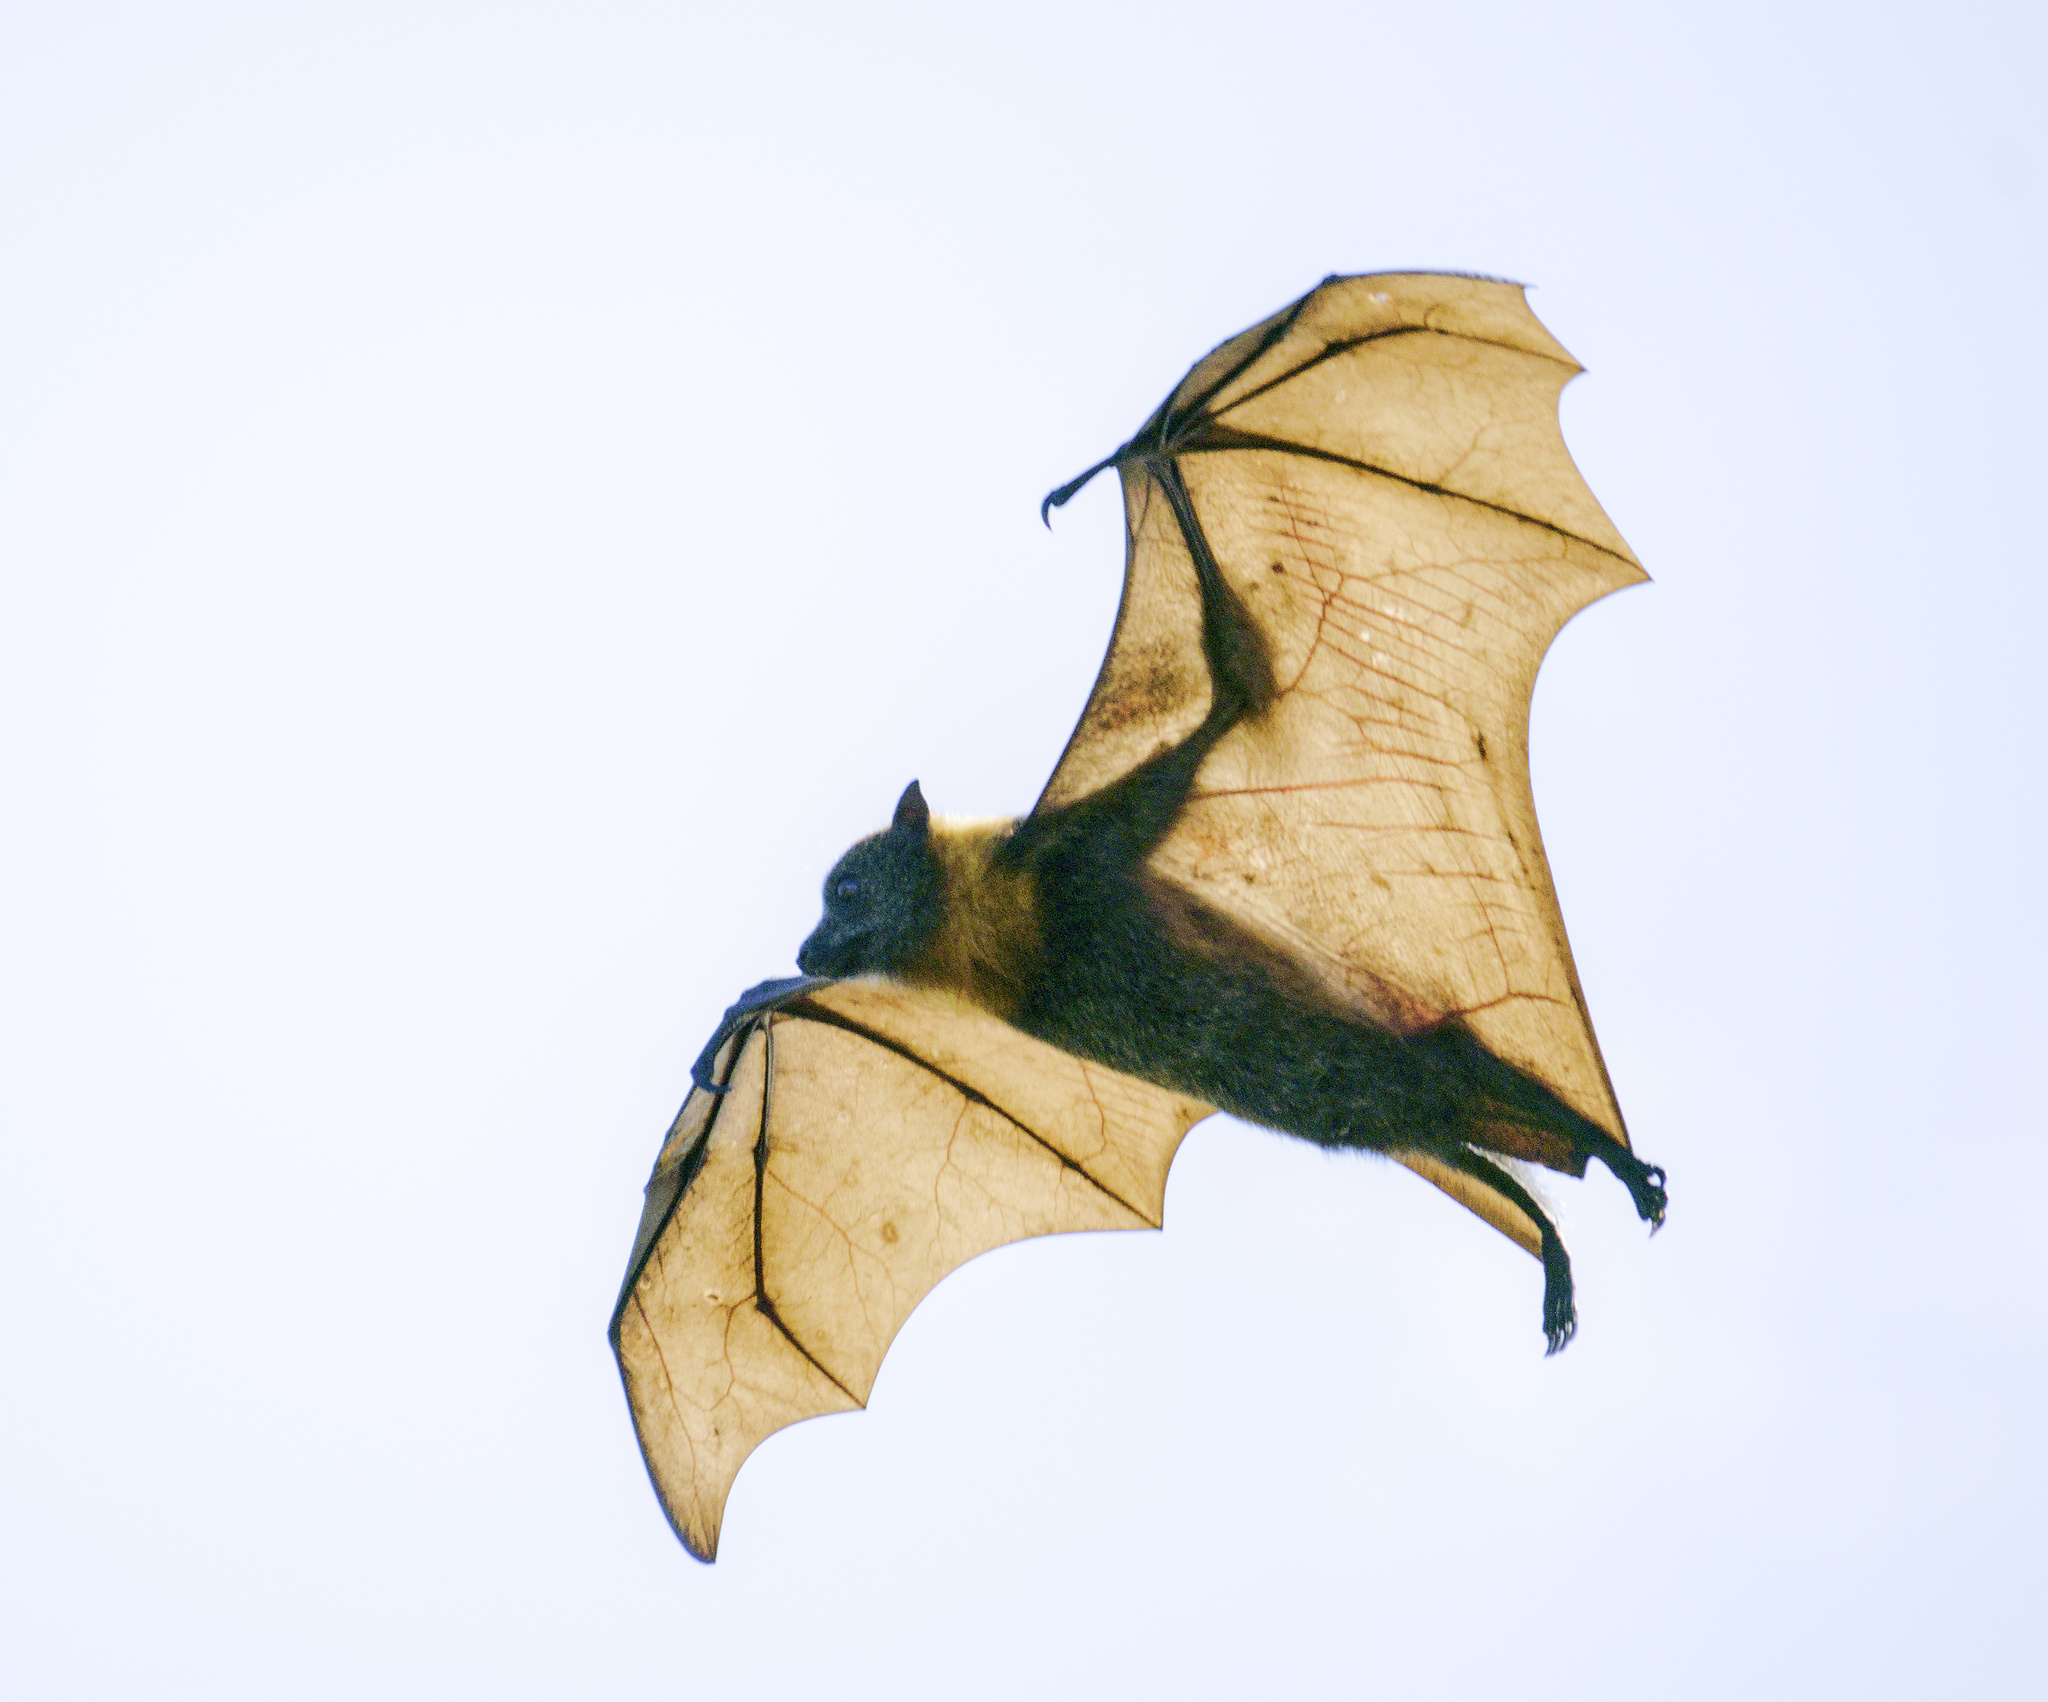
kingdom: Animalia
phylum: Chordata
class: Mammalia
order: Chiroptera
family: Pteropodidae
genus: Pteropus
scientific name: Pteropus poliocephalus
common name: Gray-headed flying fox
